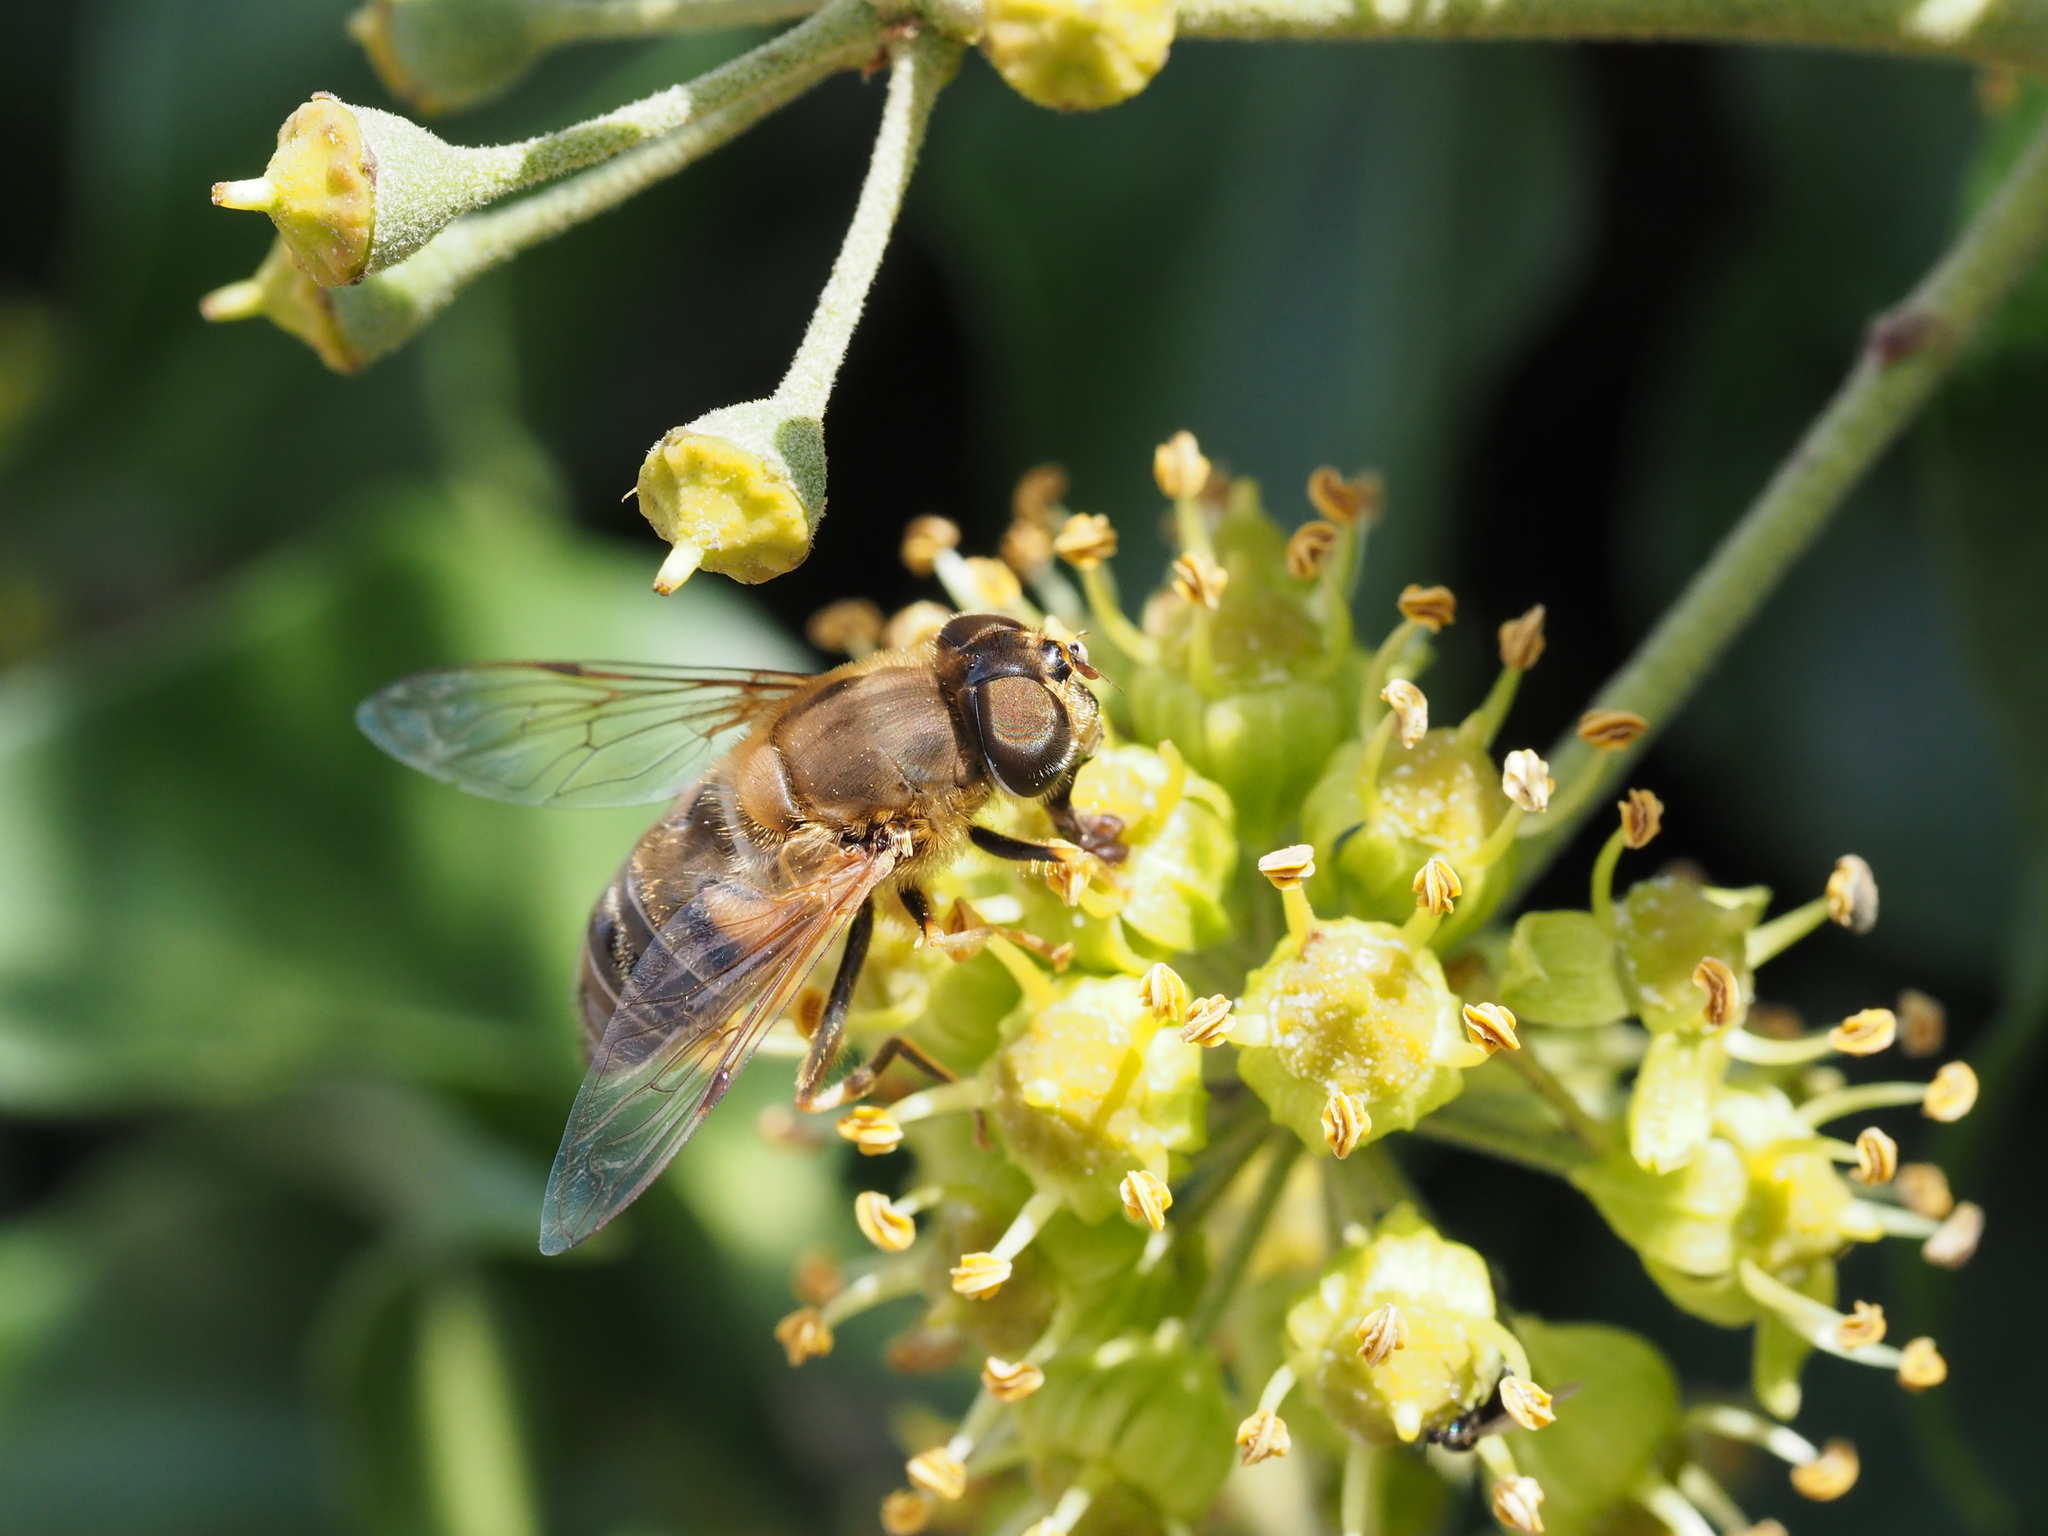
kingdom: Animalia
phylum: Arthropoda
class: Insecta
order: Diptera
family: Syrphidae
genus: Eristalis
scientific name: Eristalis pertinax
